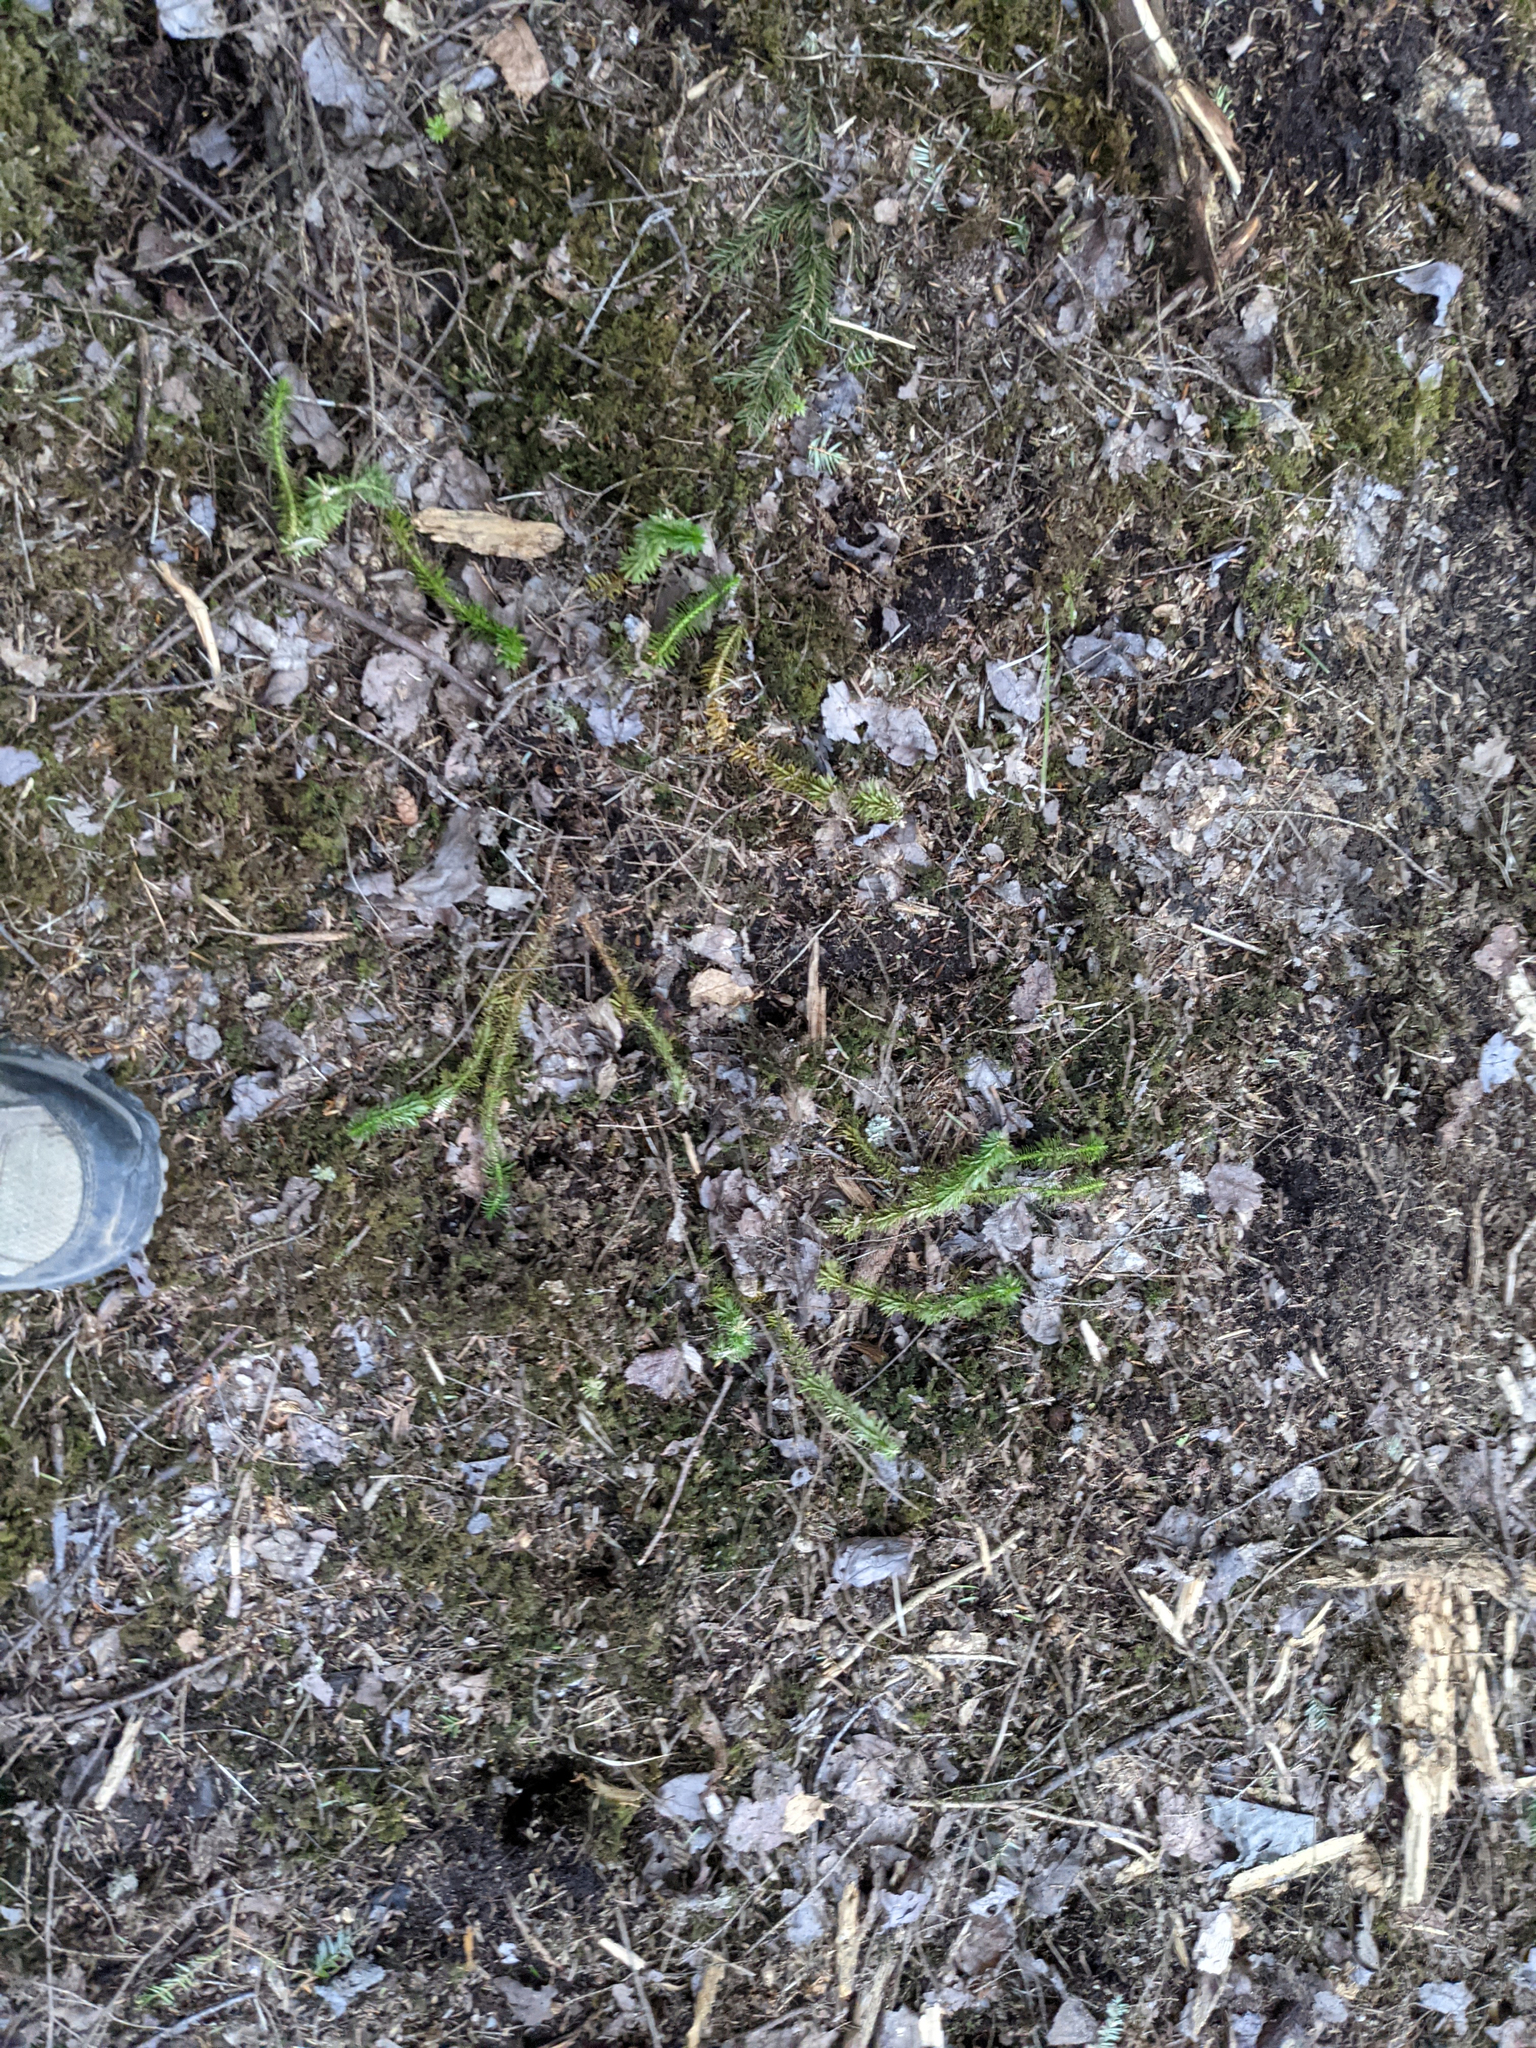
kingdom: Plantae
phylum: Tracheophyta
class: Lycopodiopsida
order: Lycopodiales
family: Lycopodiaceae
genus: Huperzia
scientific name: Huperzia lucidula
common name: Shining clubmoss
